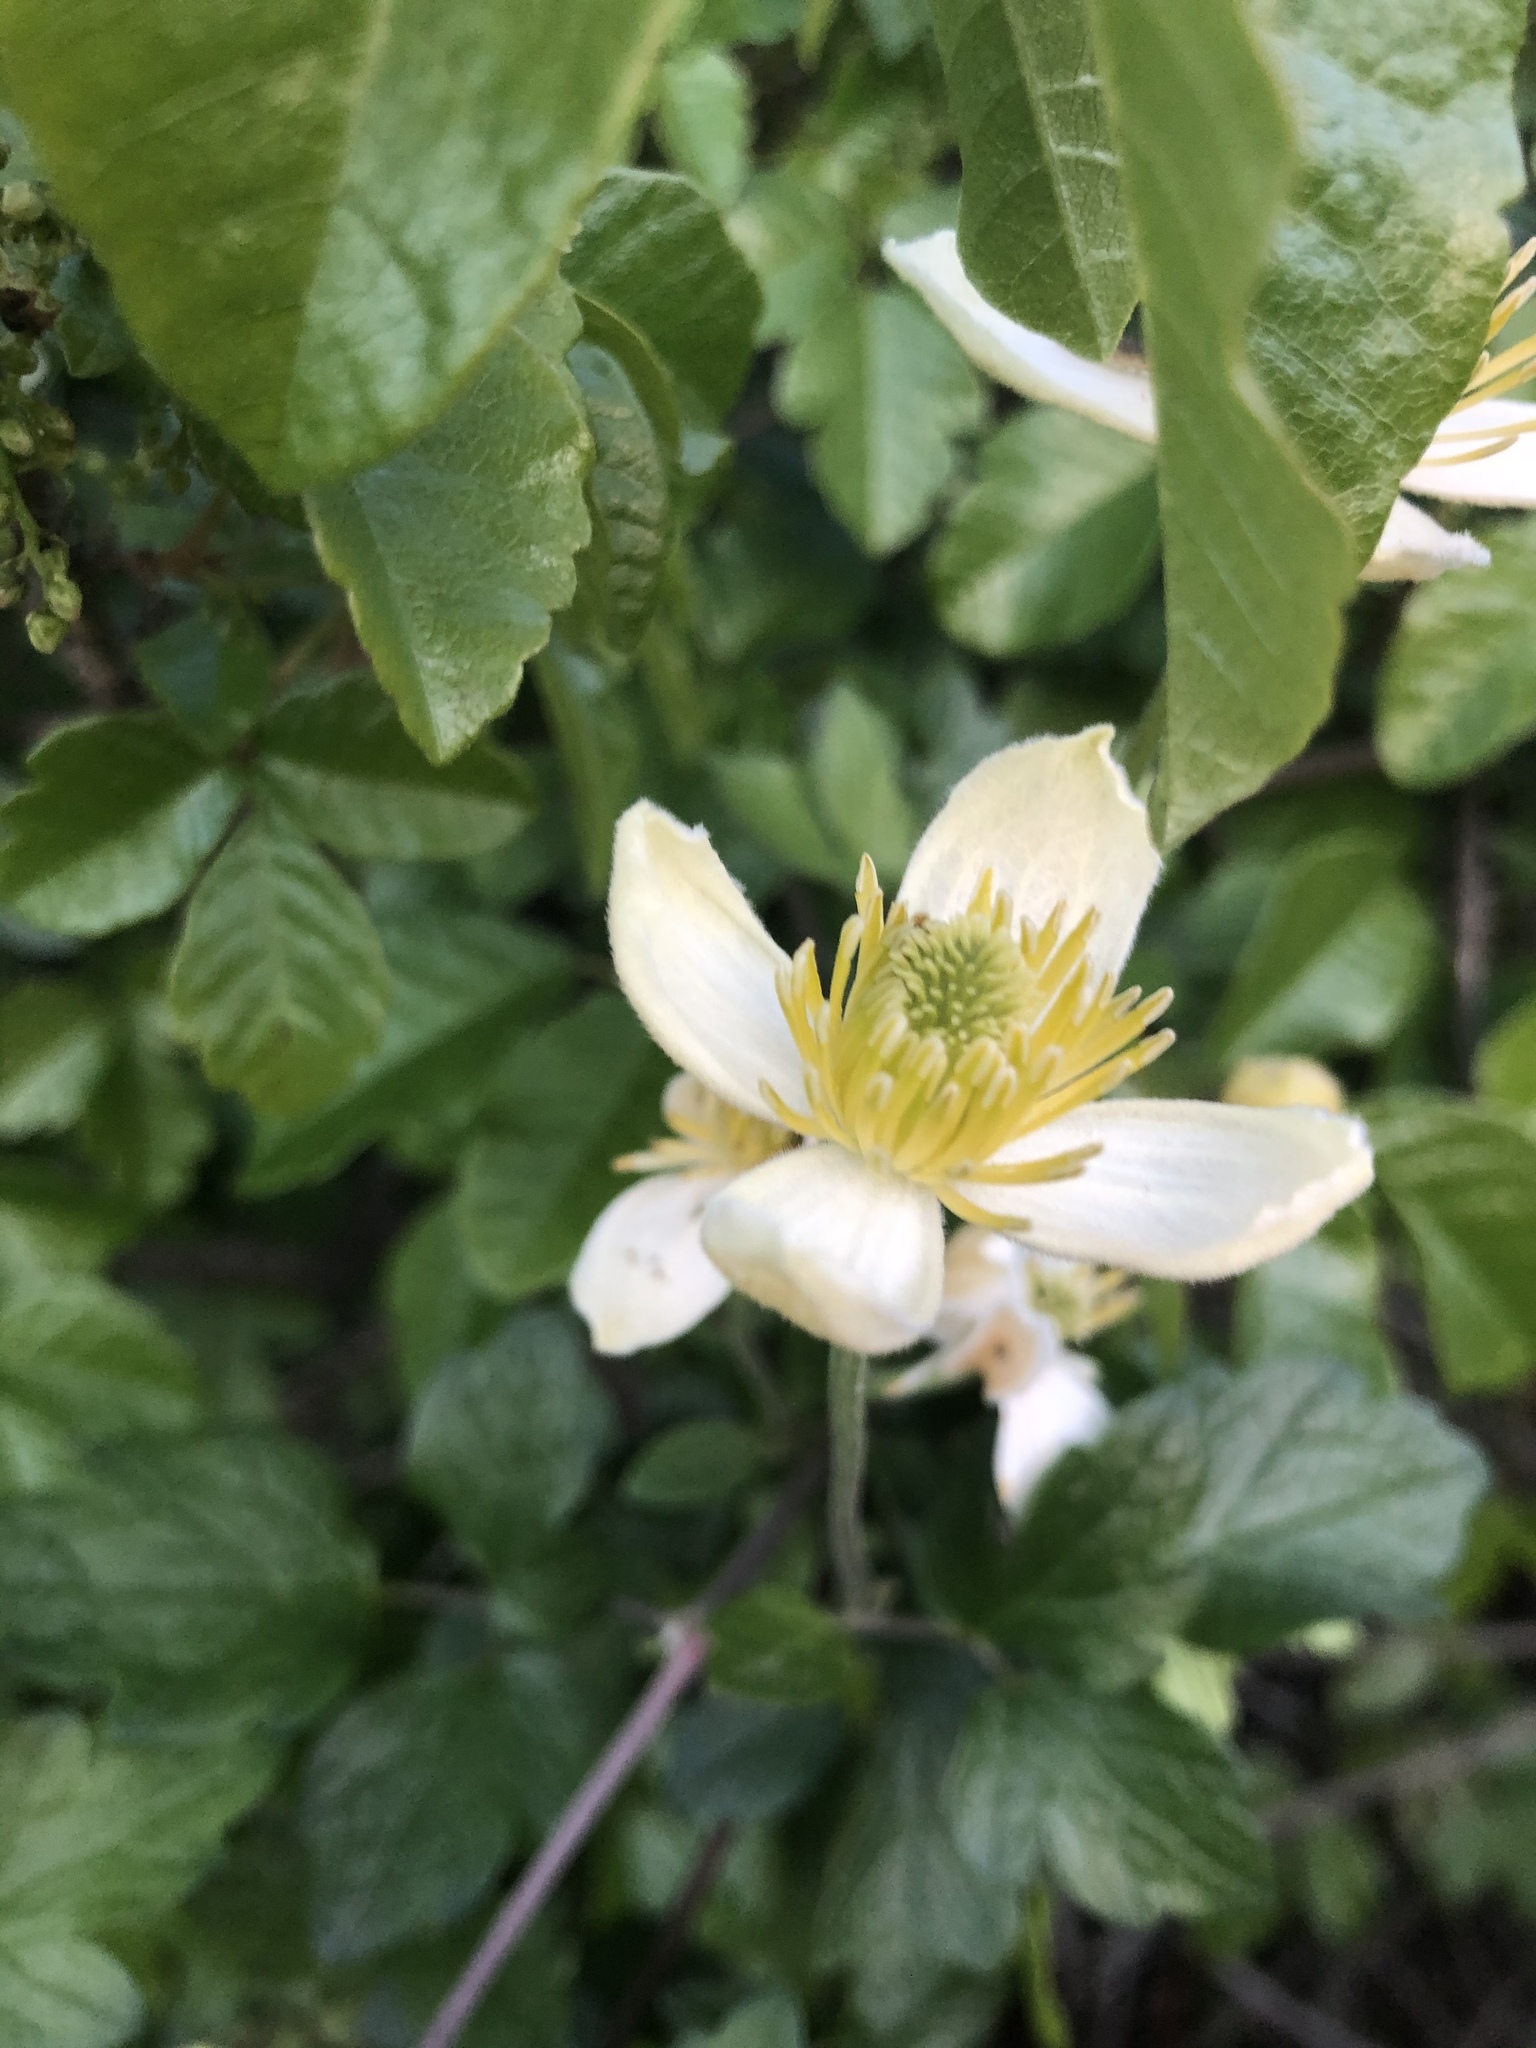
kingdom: Plantae
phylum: Tracheophyta
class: Magnoliopsida
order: Ranunculales
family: Ranunculaceae
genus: Clematis
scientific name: Clematis lasiantha
